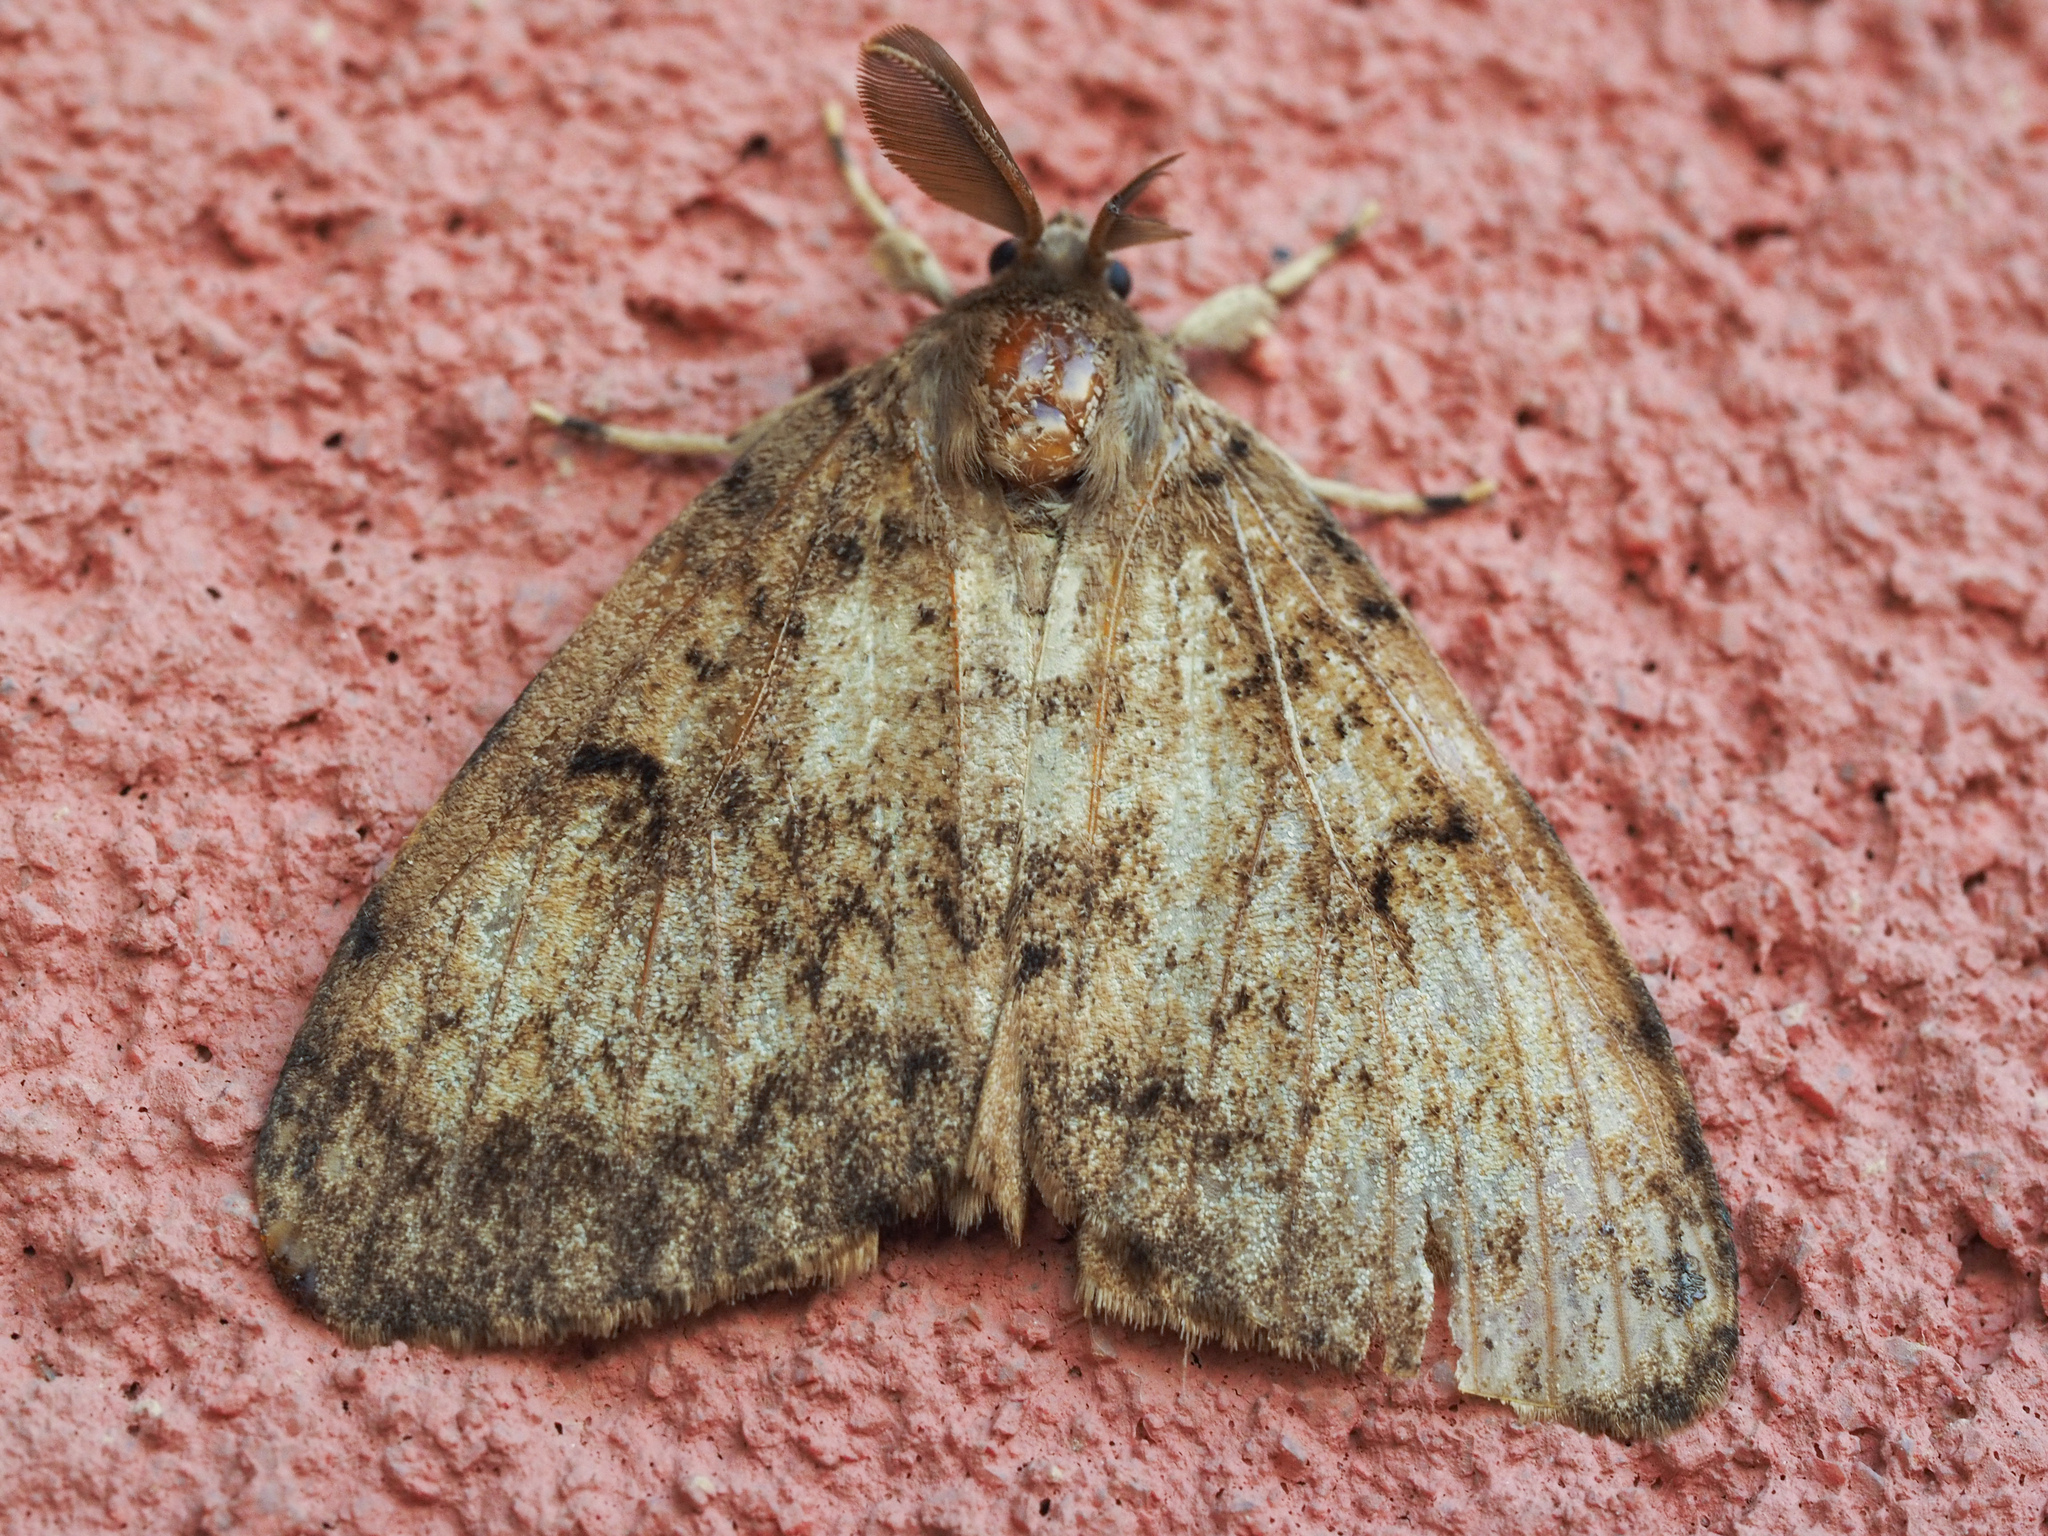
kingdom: Animalia
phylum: Arthropoda
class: Insecta
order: Lepidoptera
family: Erebidae
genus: Lymantria
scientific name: Lymantria dispar
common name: Gypsy moth
